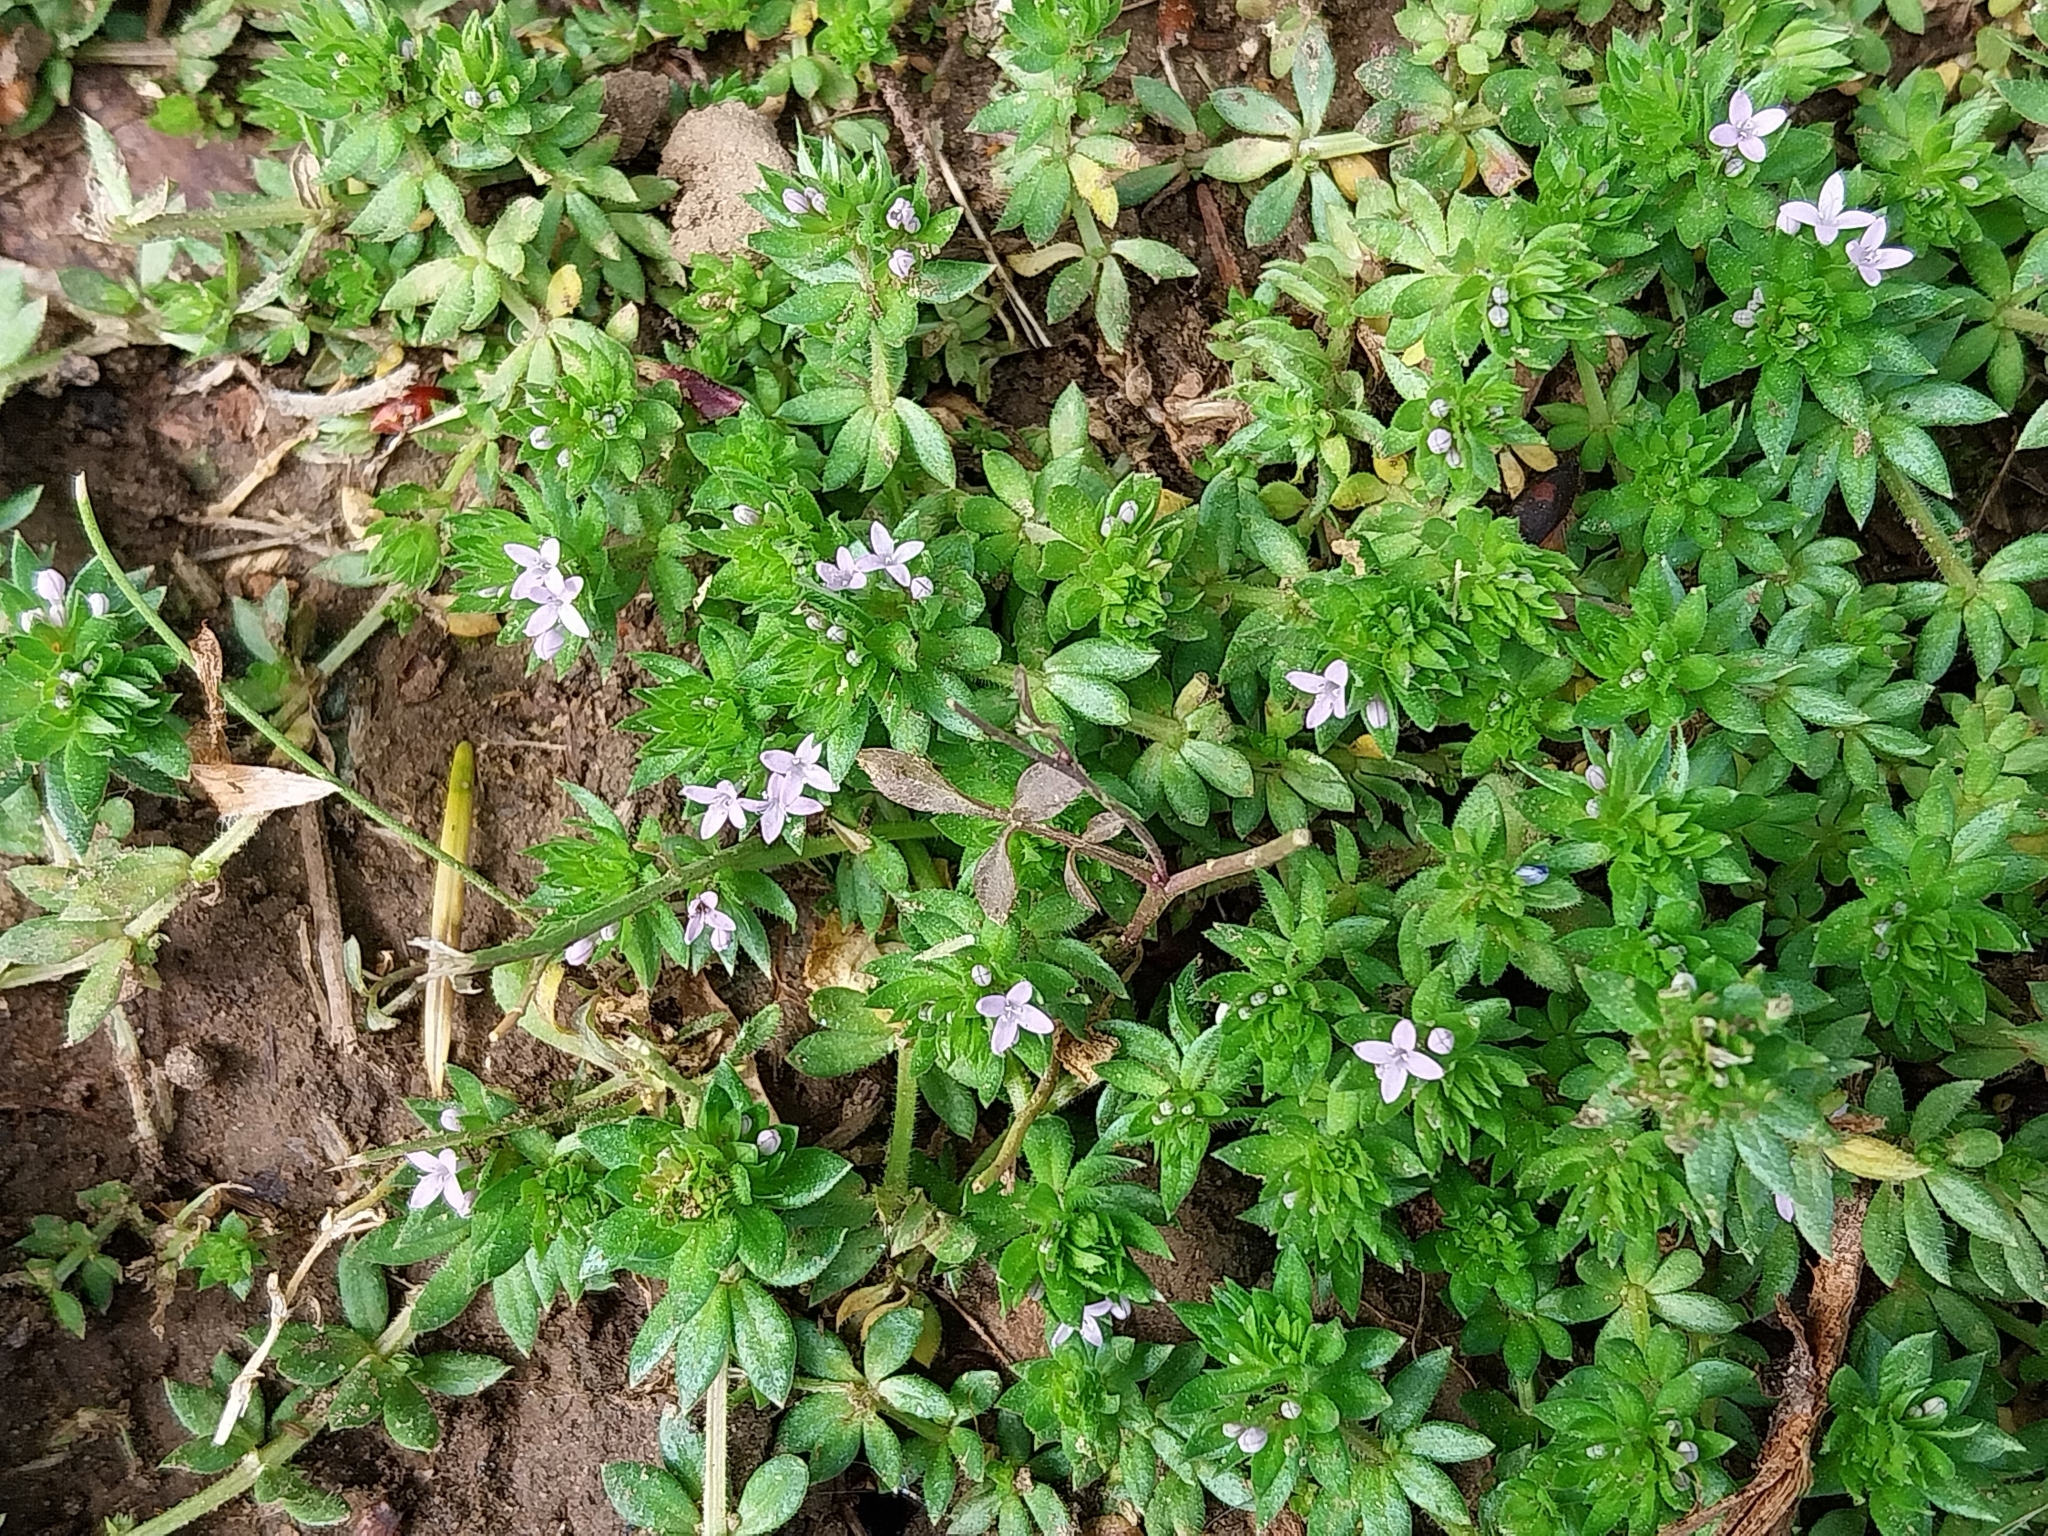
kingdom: Plantae
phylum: Tracheophyta
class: Magnoliopsida
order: Gentianales
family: Rubiaceae
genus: Sherardia
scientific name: Sherardia arvensis
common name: Field madder
